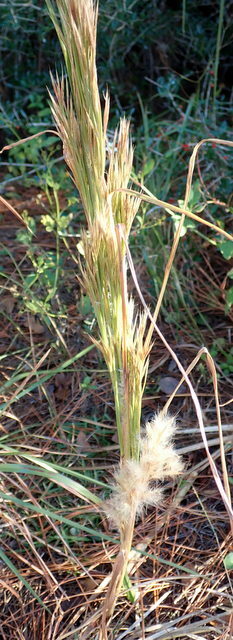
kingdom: Plantae
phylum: Tracheophyta
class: Liliopsida
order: Poales
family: Poaceae
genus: Andropogon
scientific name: Andropogon tenuispatheus
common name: Bushy bluestem
